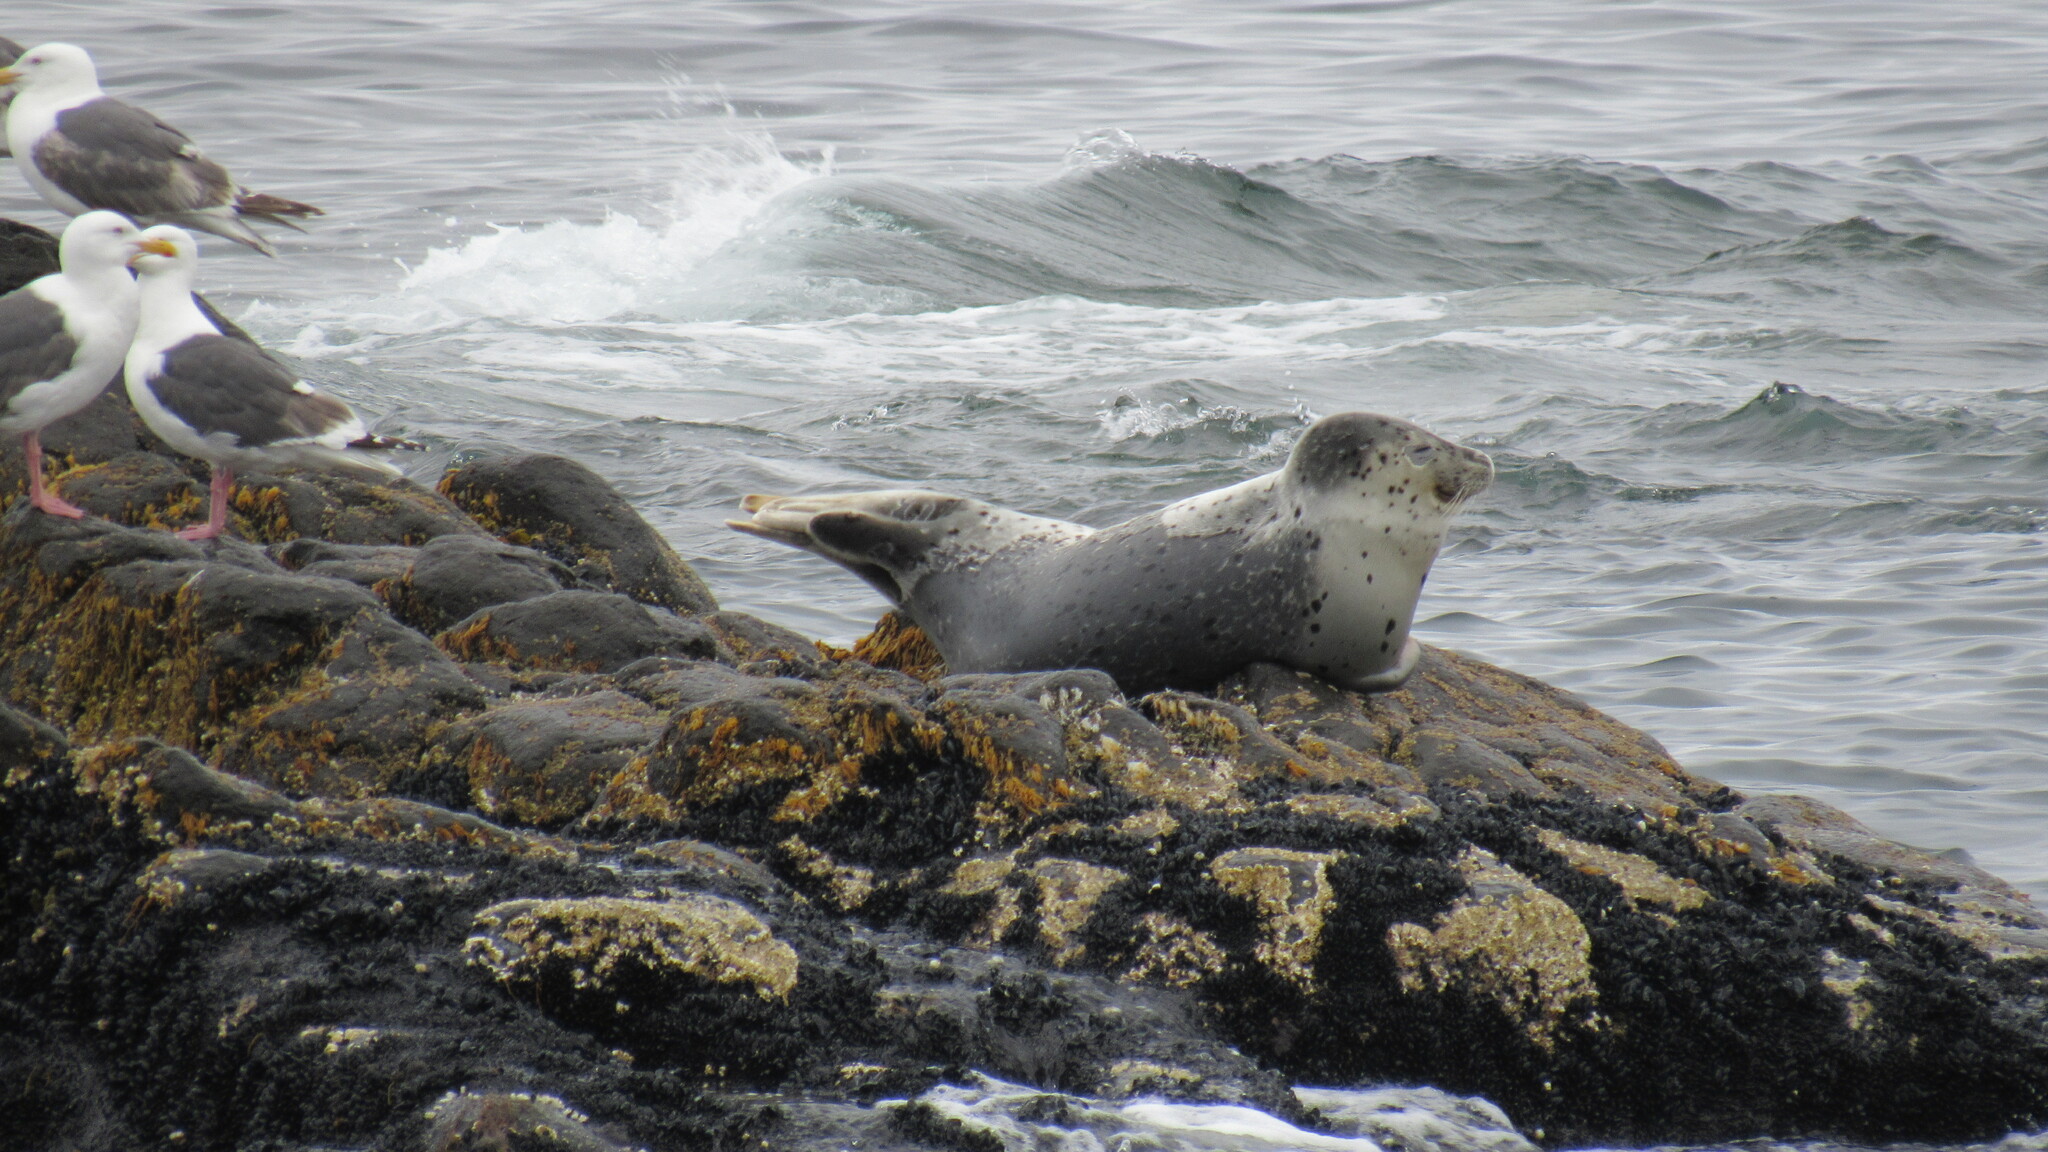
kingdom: Animalia
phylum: Chordata
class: Mammalia
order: Carnivora
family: Phocidae
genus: Phoca
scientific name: Phoca vitulina
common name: Harbor seal
